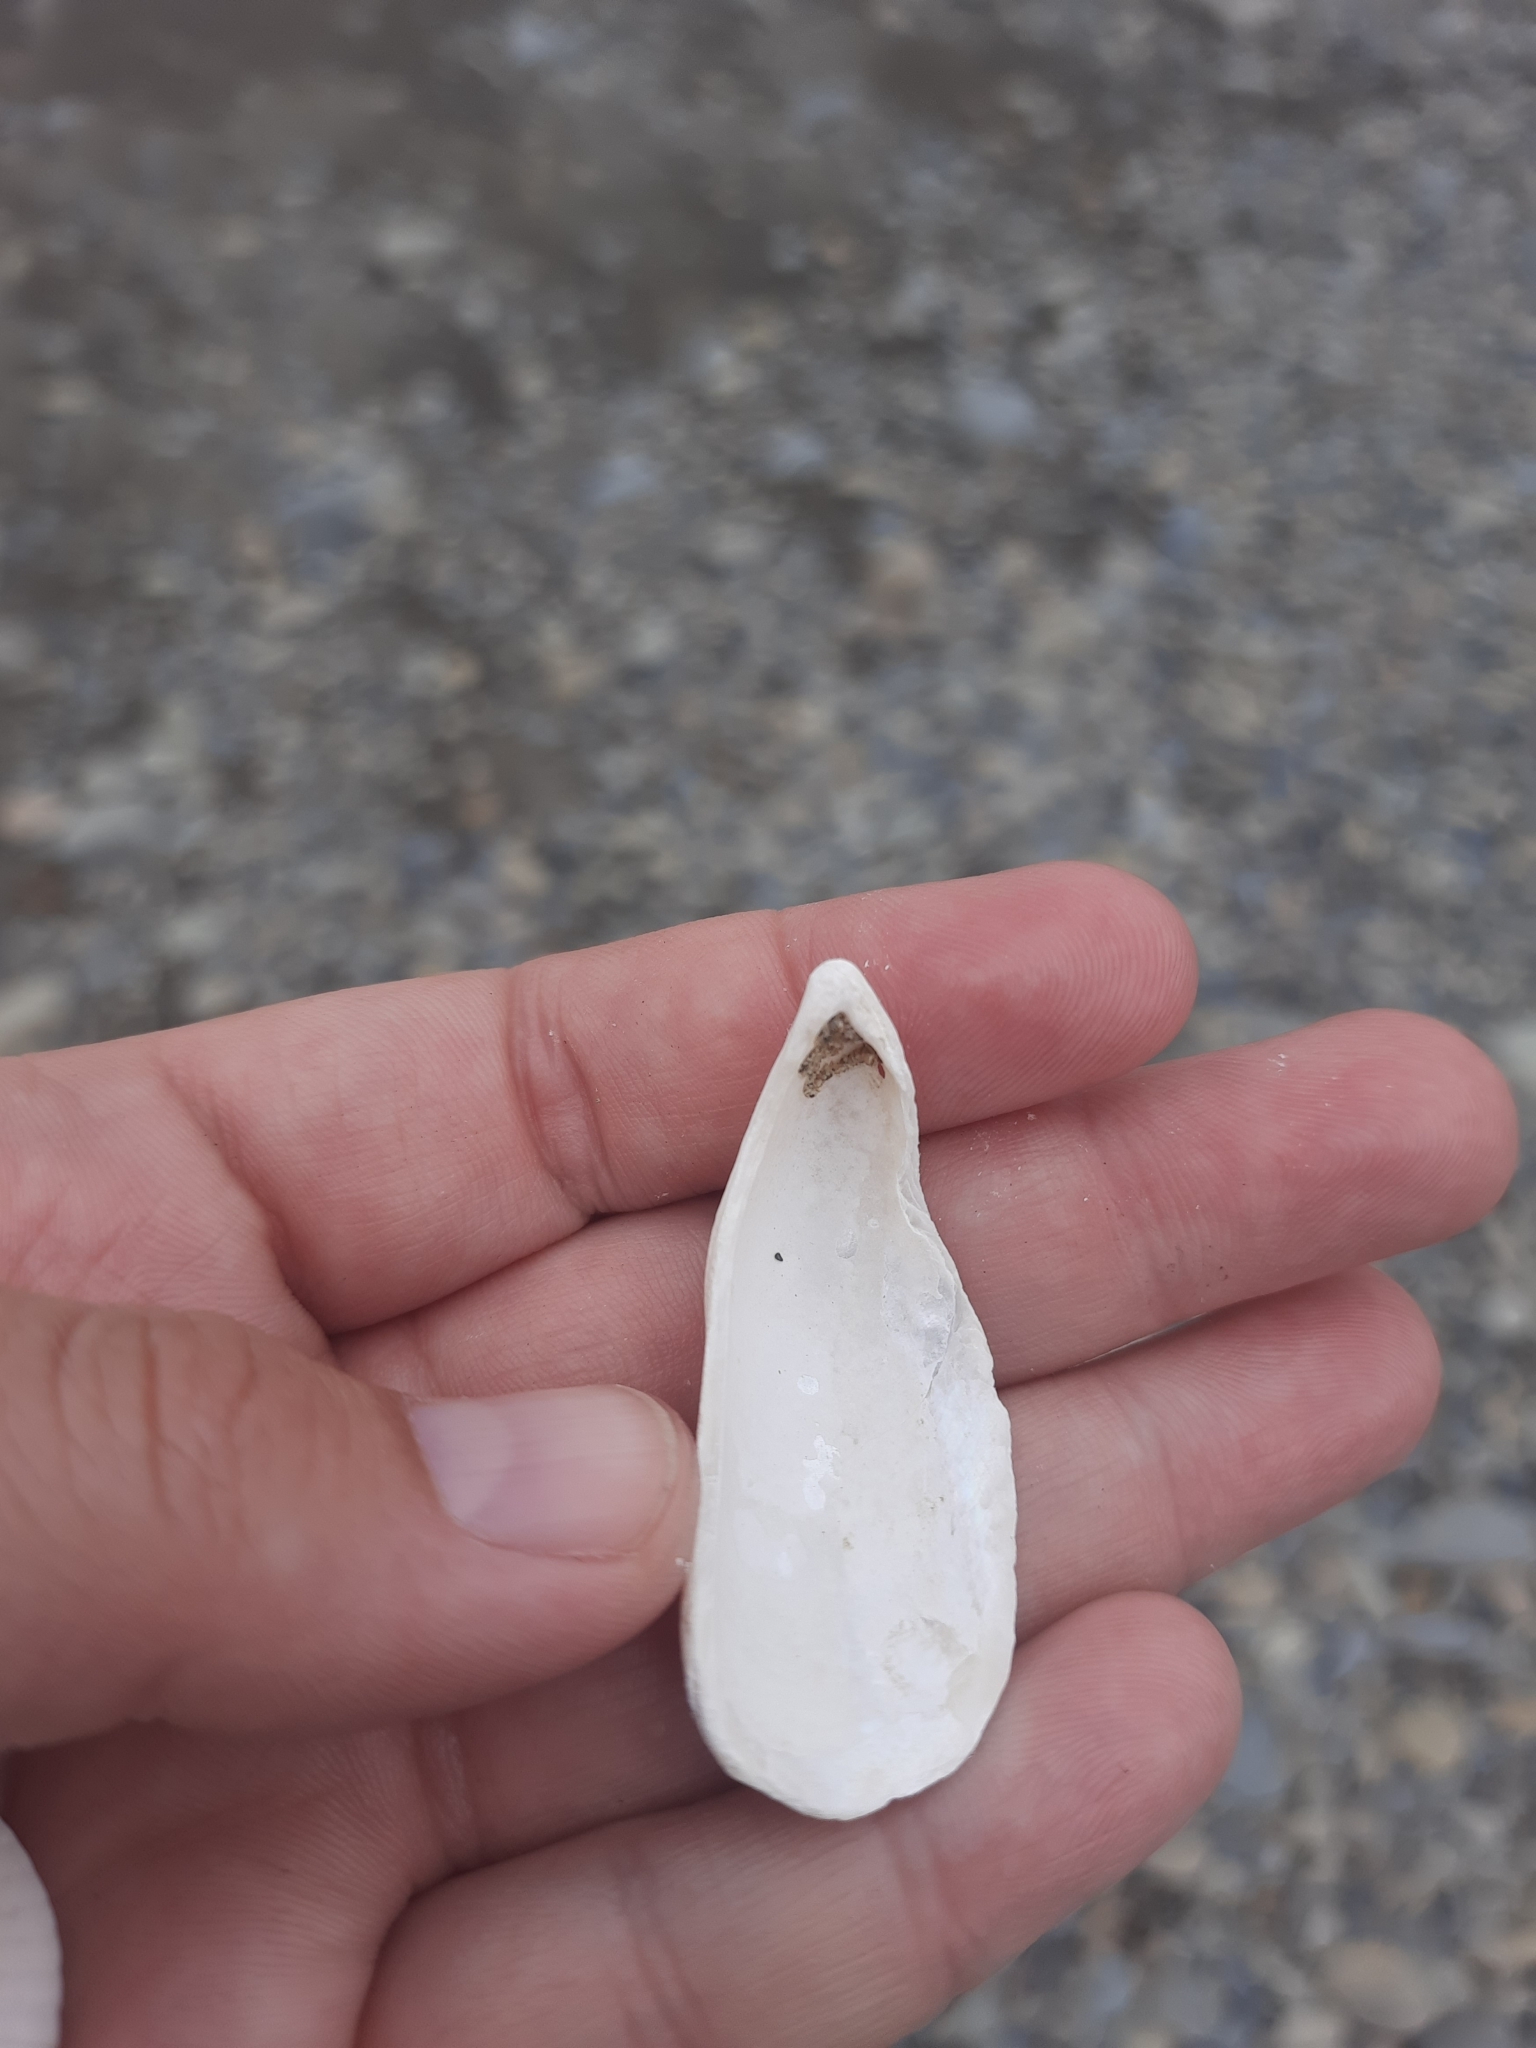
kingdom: Animalia
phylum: Mollusca
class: Bivalvia
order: Mytilida
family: Mytilidae
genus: Aulacomya
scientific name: Aulacomya maoriana
